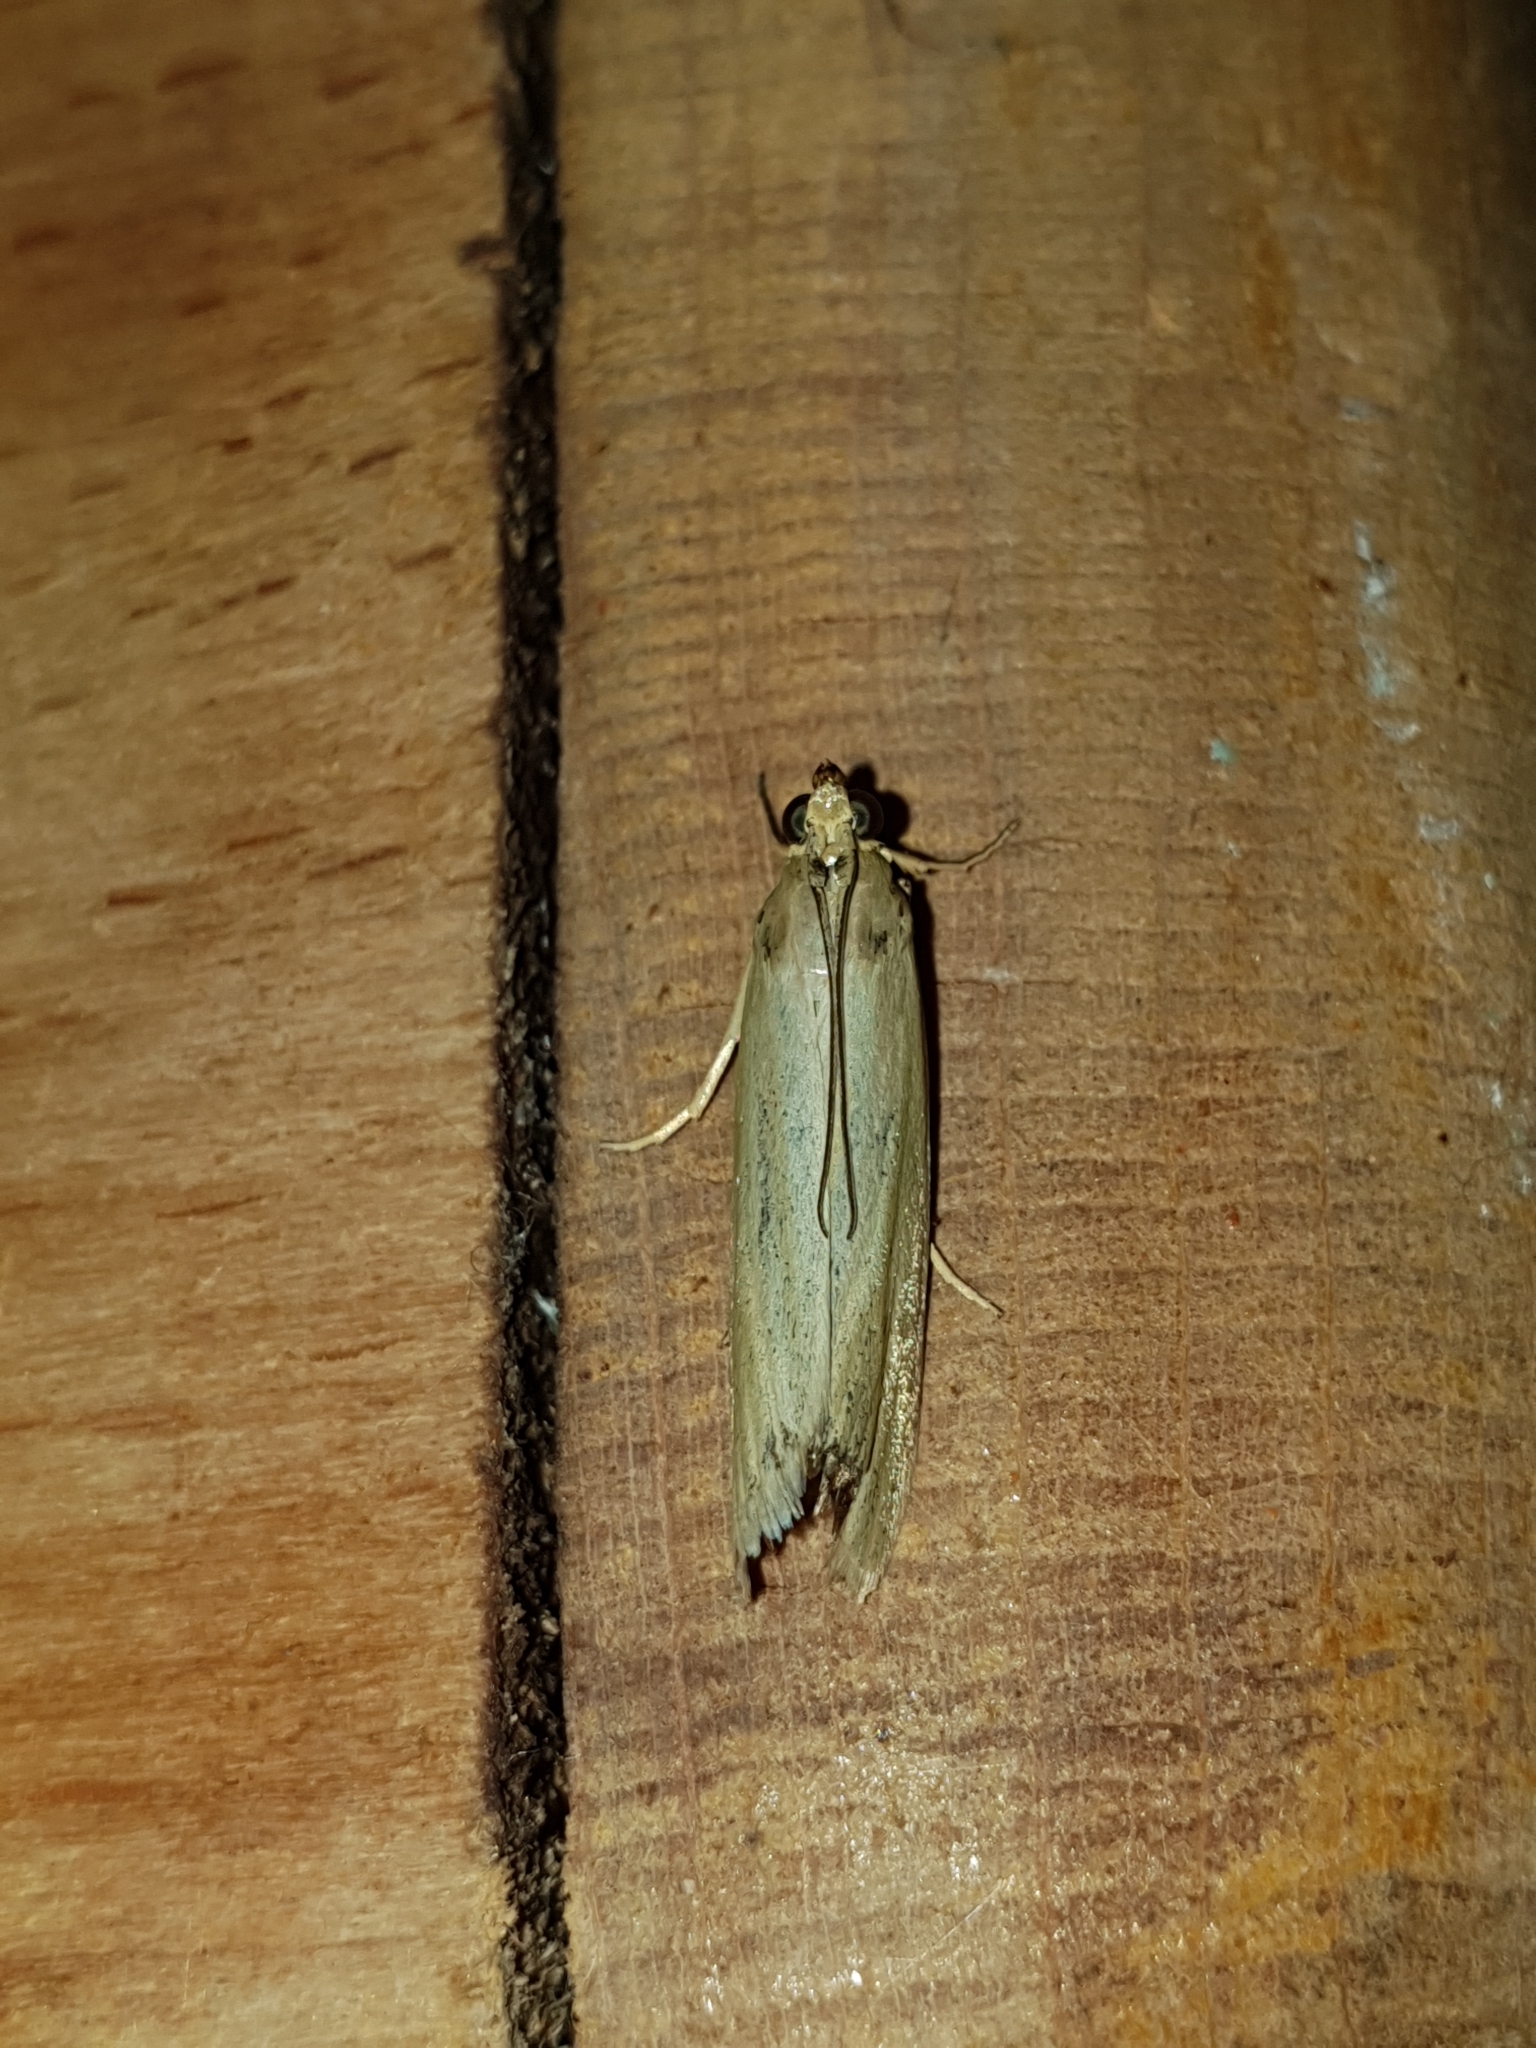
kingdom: Animalia
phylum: Arthropoda
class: Insecta
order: Lepidoptera
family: Pyralidae
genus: Selagia
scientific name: Selagia argyrella
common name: Silvery knot-horn
